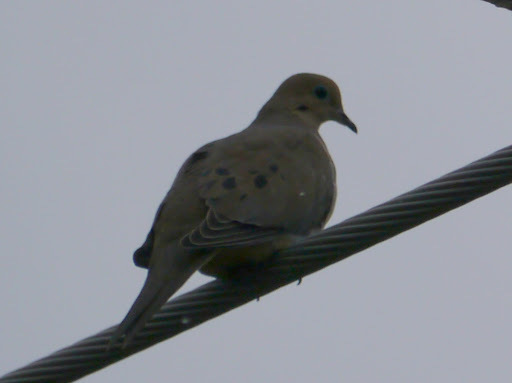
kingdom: Animalia
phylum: Chordata
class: Aves
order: Columbiformes
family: Columbidae
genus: Zenaida
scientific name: Zenaida macroura
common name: Mourning dove
